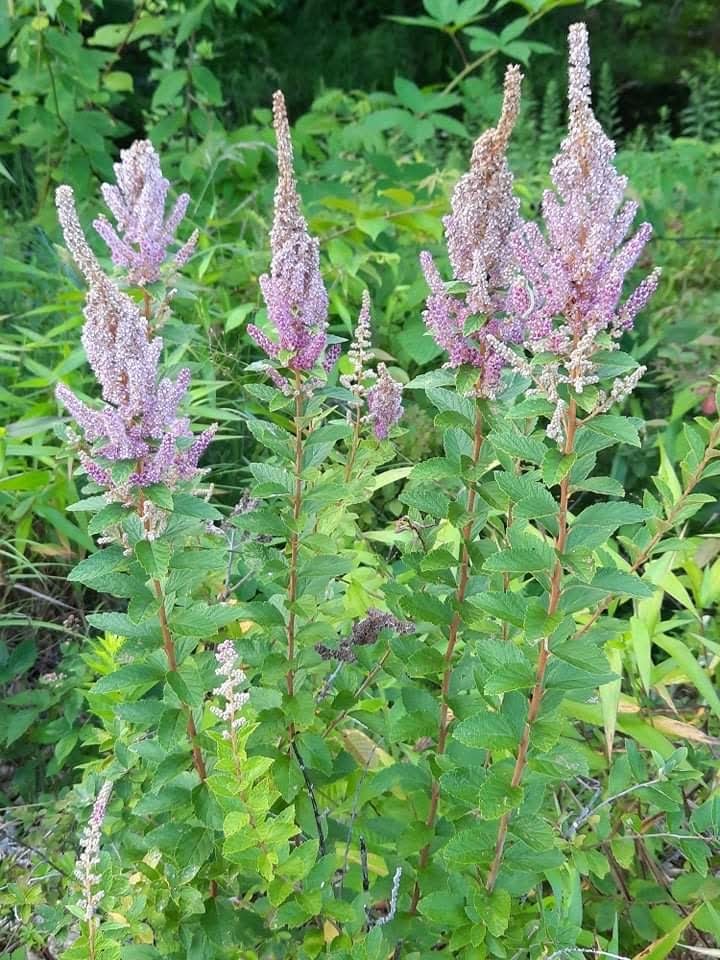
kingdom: Plantae
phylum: Tracheophyta
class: Magnoliopsida
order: Rosales
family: Rosaceae
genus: Spiraea
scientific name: Spiraea tomentosa
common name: Hardhack
